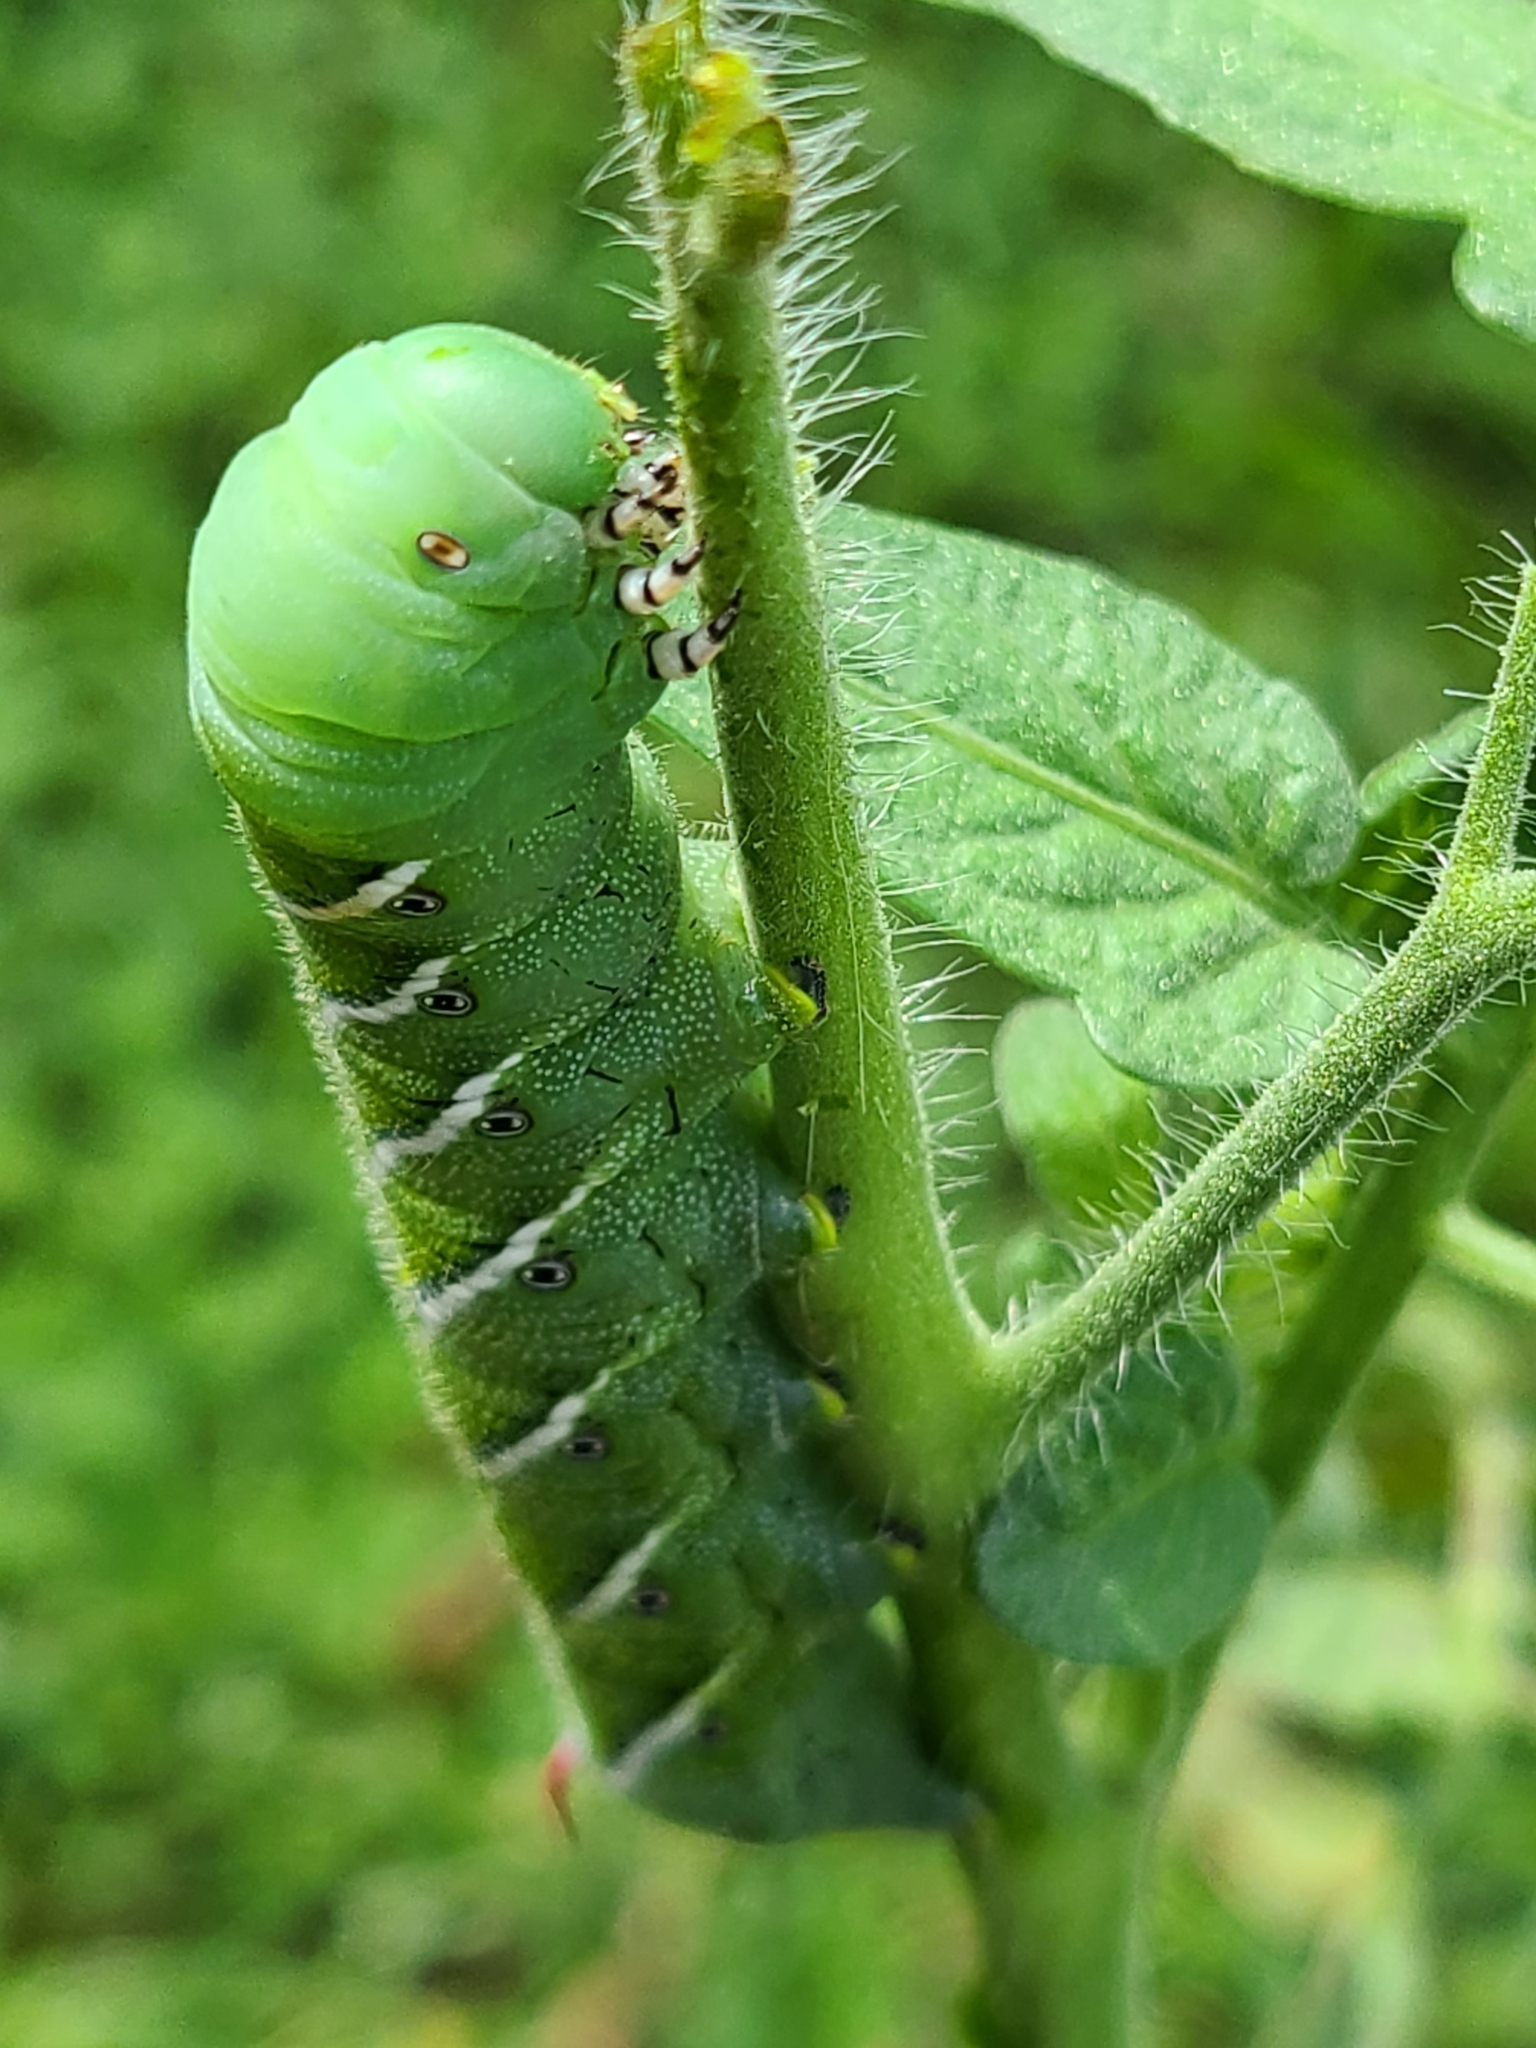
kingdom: Animalia
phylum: Arthropoda
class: Insecta
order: Lepidoptera
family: Sphingidae
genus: Manduca
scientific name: Manduca sexta
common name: Carolina sphinx
